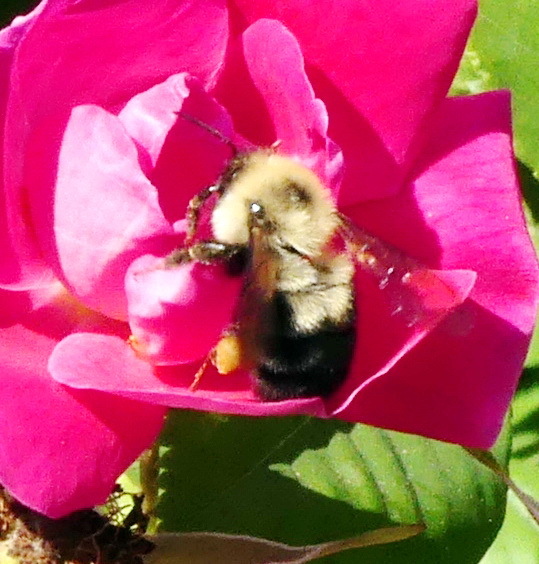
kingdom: Animalia
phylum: Arthropoda
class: Insecta
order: Hymenoptera
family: Apidae
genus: Bombus
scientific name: Bombus bimaculatus
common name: Two-spotted bumble bee
